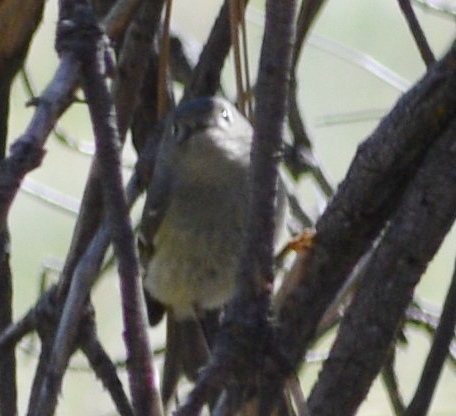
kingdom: Animalia
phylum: Chordata
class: Aves
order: Passeriformes
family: Regulidae
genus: Regulus
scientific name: Regulus calendula
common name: Ruby-crowned kinglet
